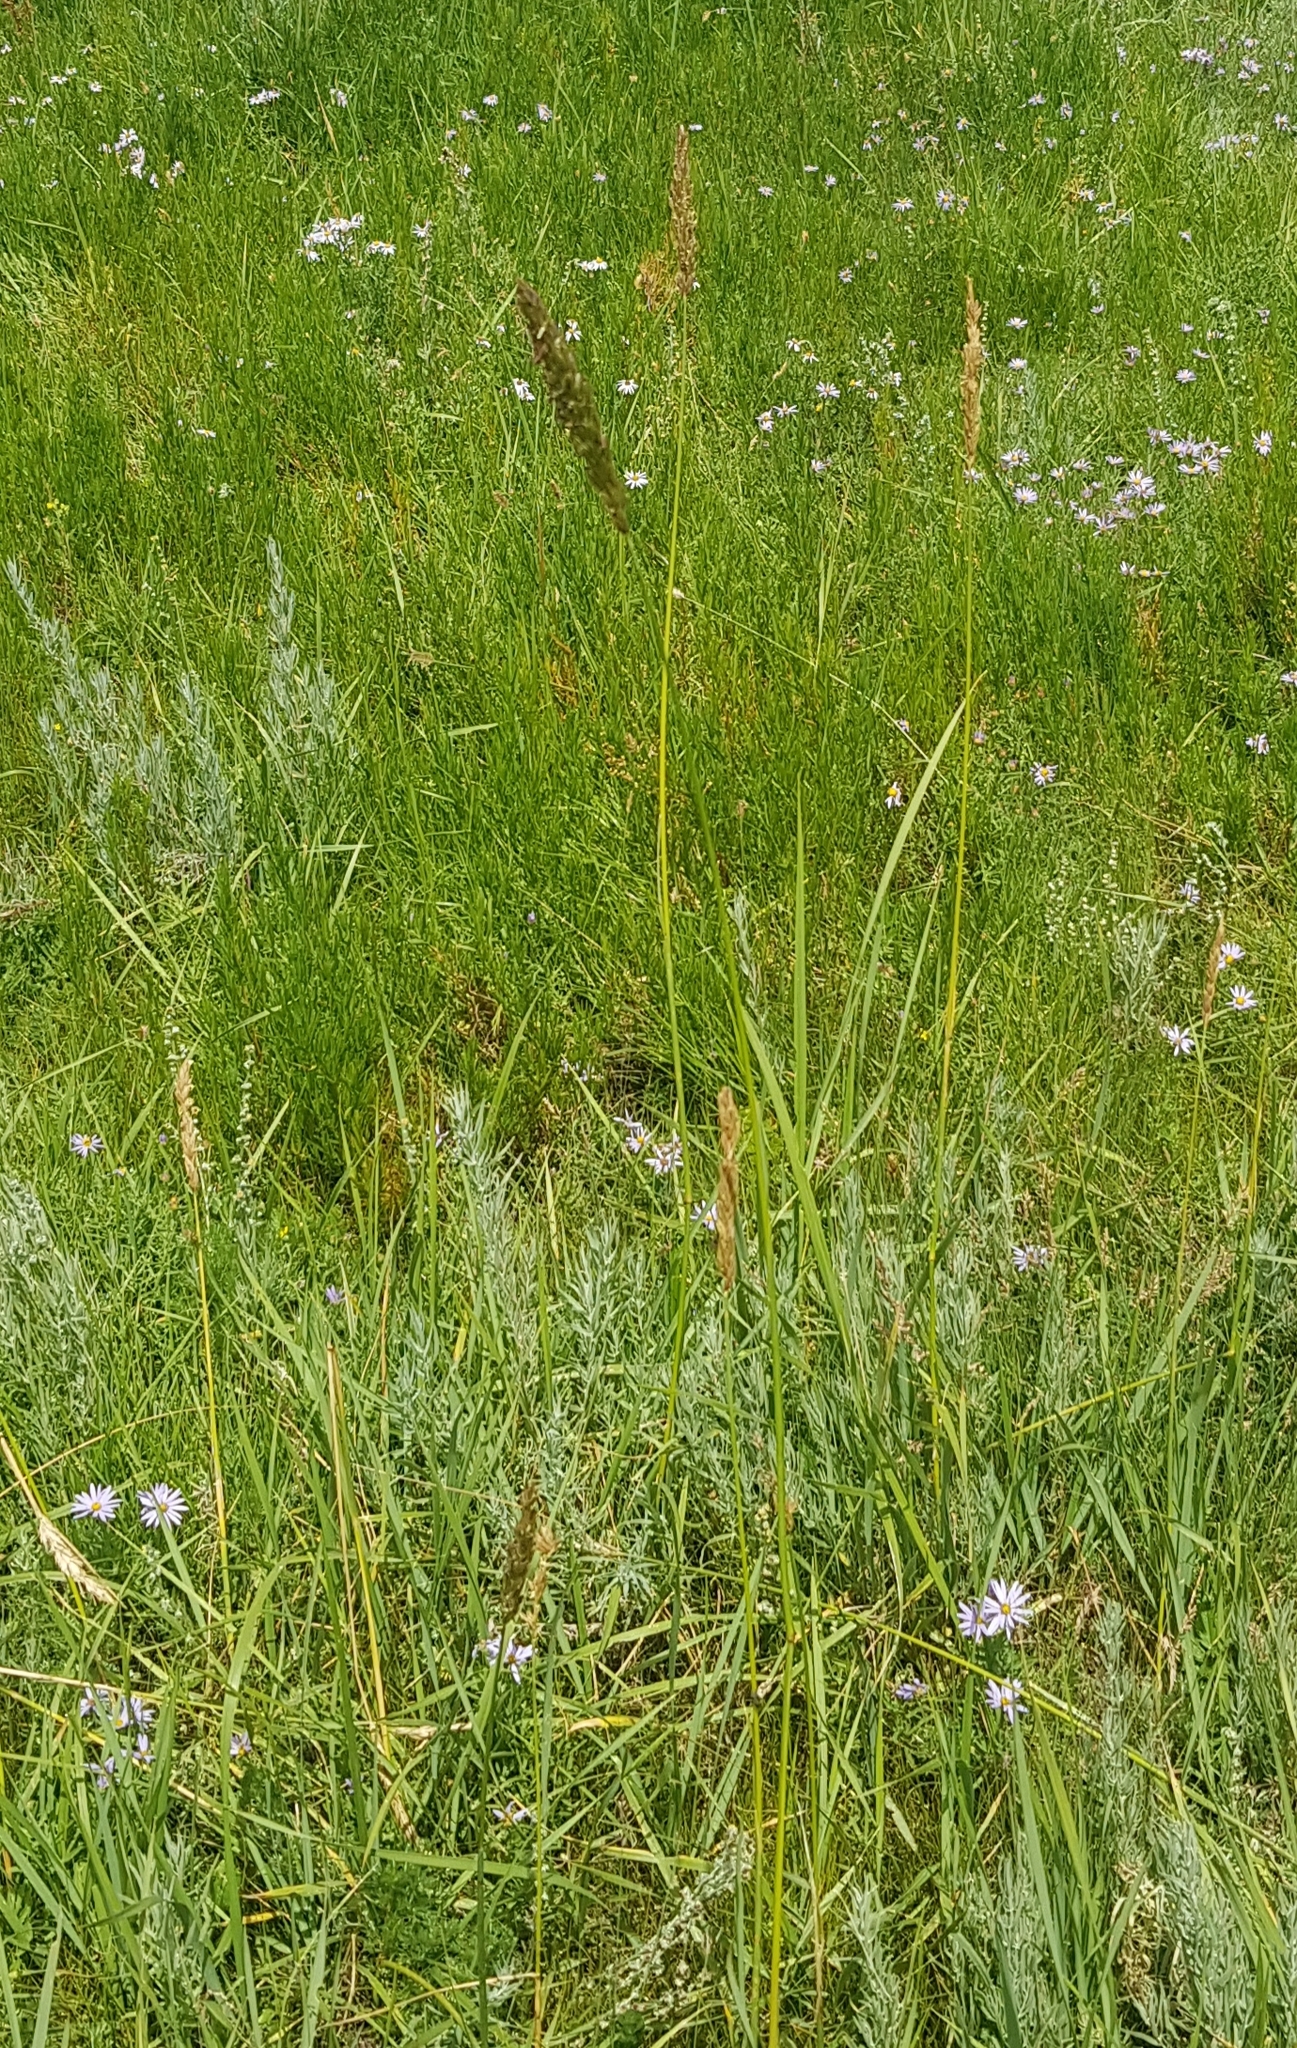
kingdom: Plantae
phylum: Tracheophyta
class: Liliopsida
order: Poales
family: Poaceae
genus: Calamagrostis
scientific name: Calamagrostis epigejos
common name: Wood small-reed
